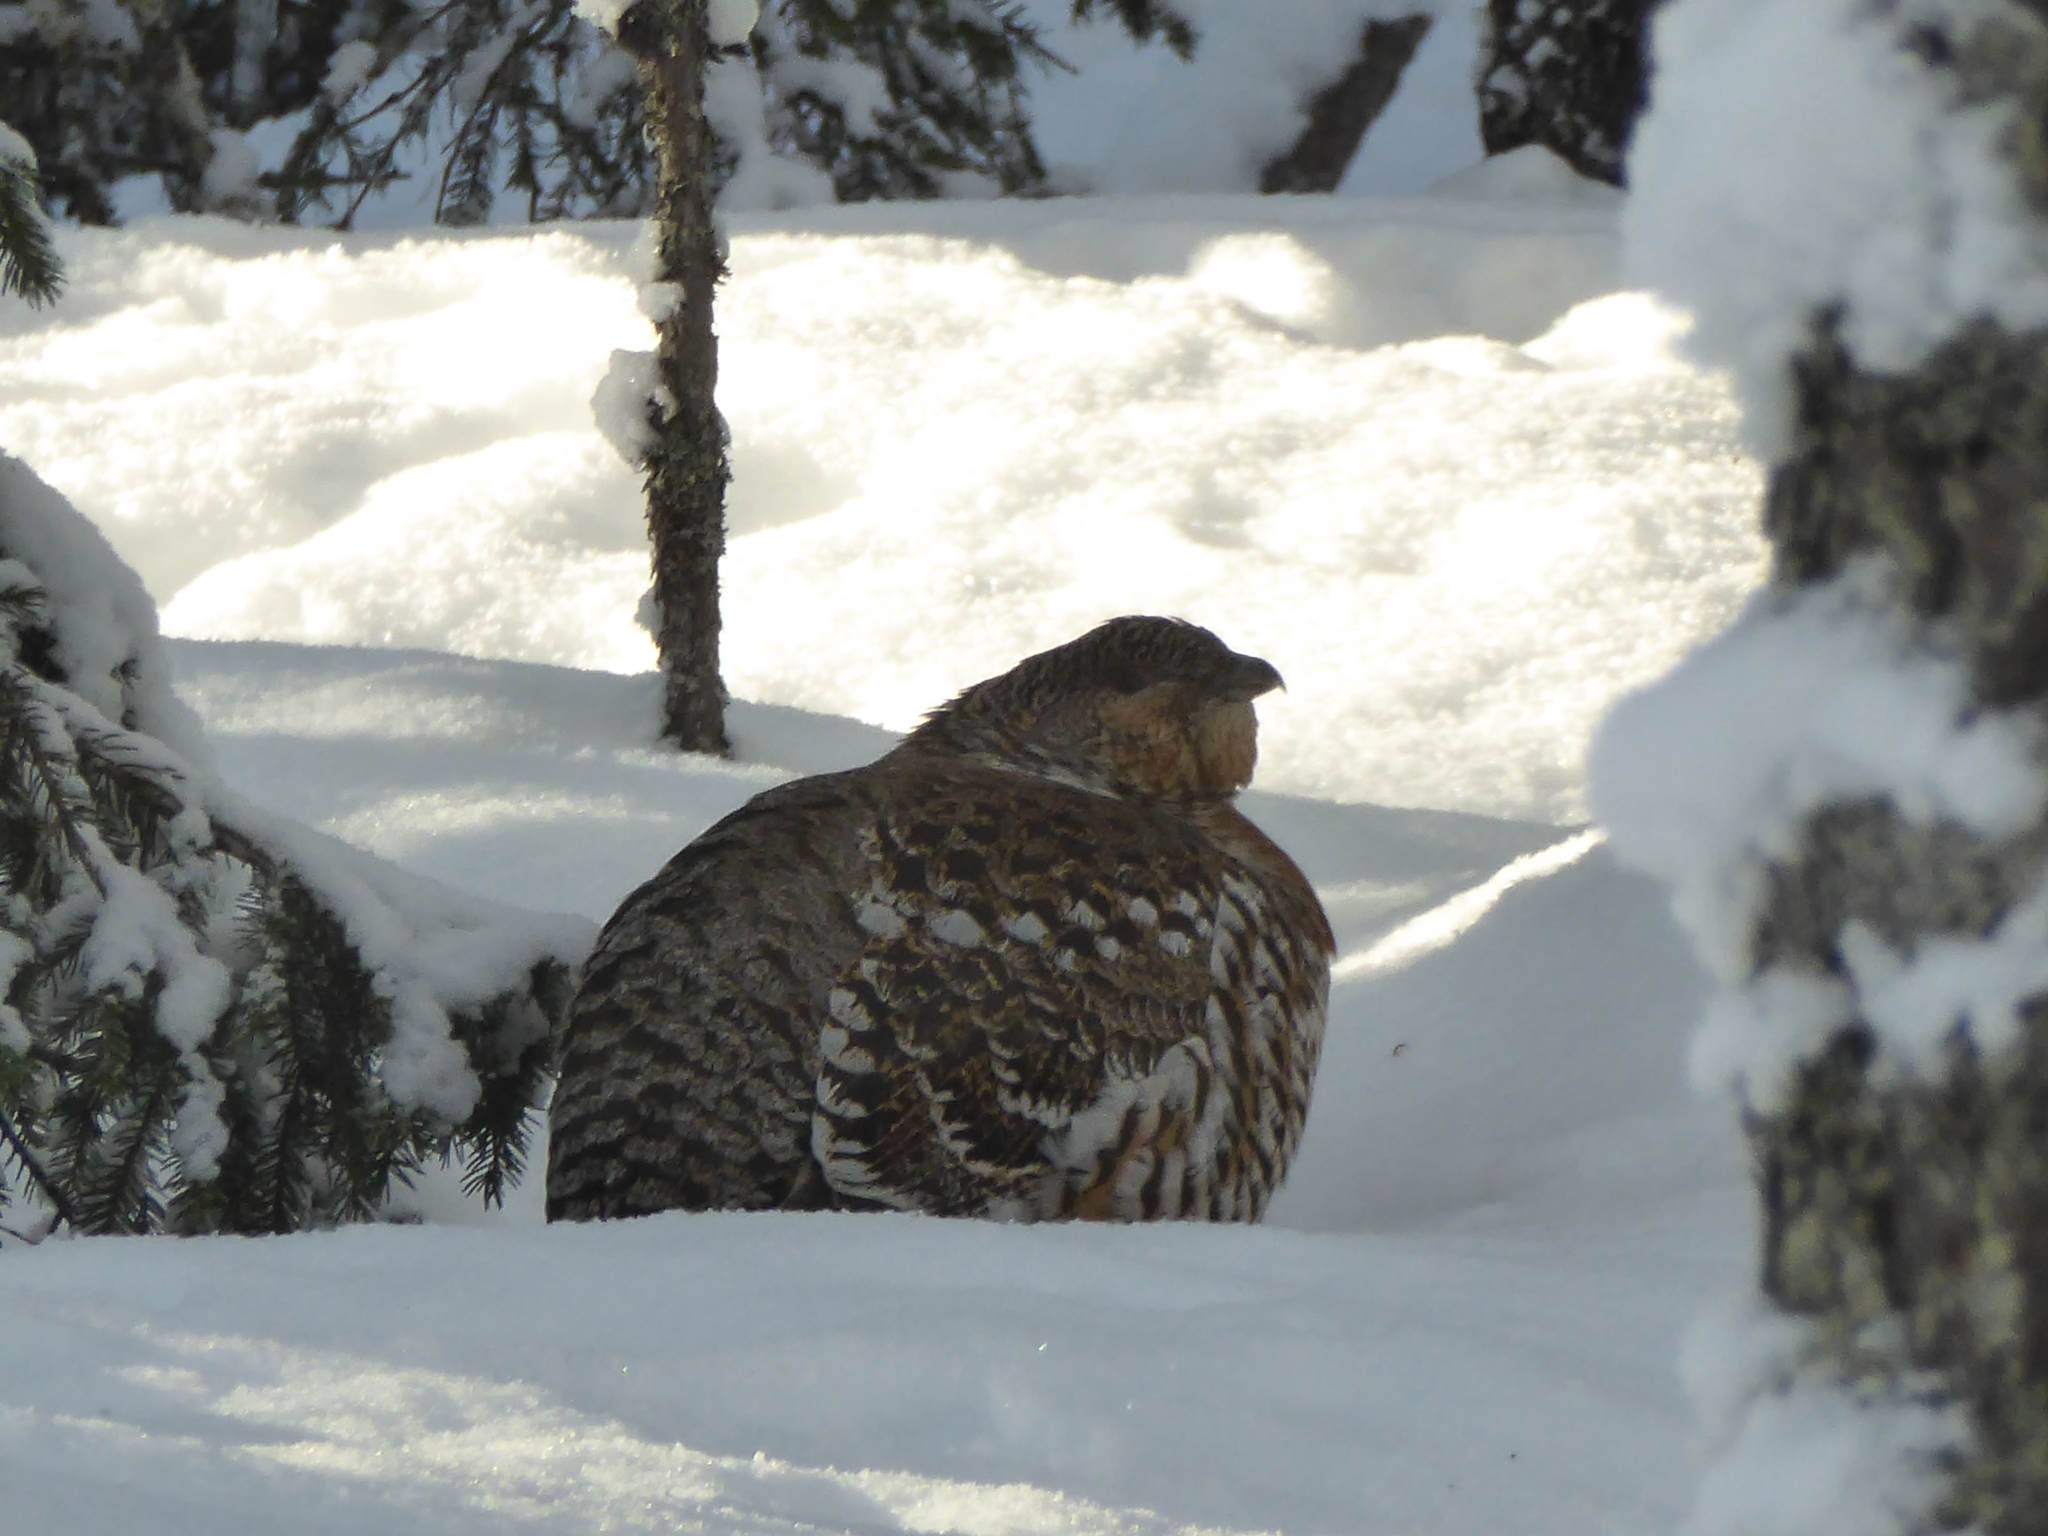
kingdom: Animalia
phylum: Chordata
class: Aves
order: Galliformes
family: Phasianidae
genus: Tetrao
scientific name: Tetrao urogallus
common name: Western capercaillie
